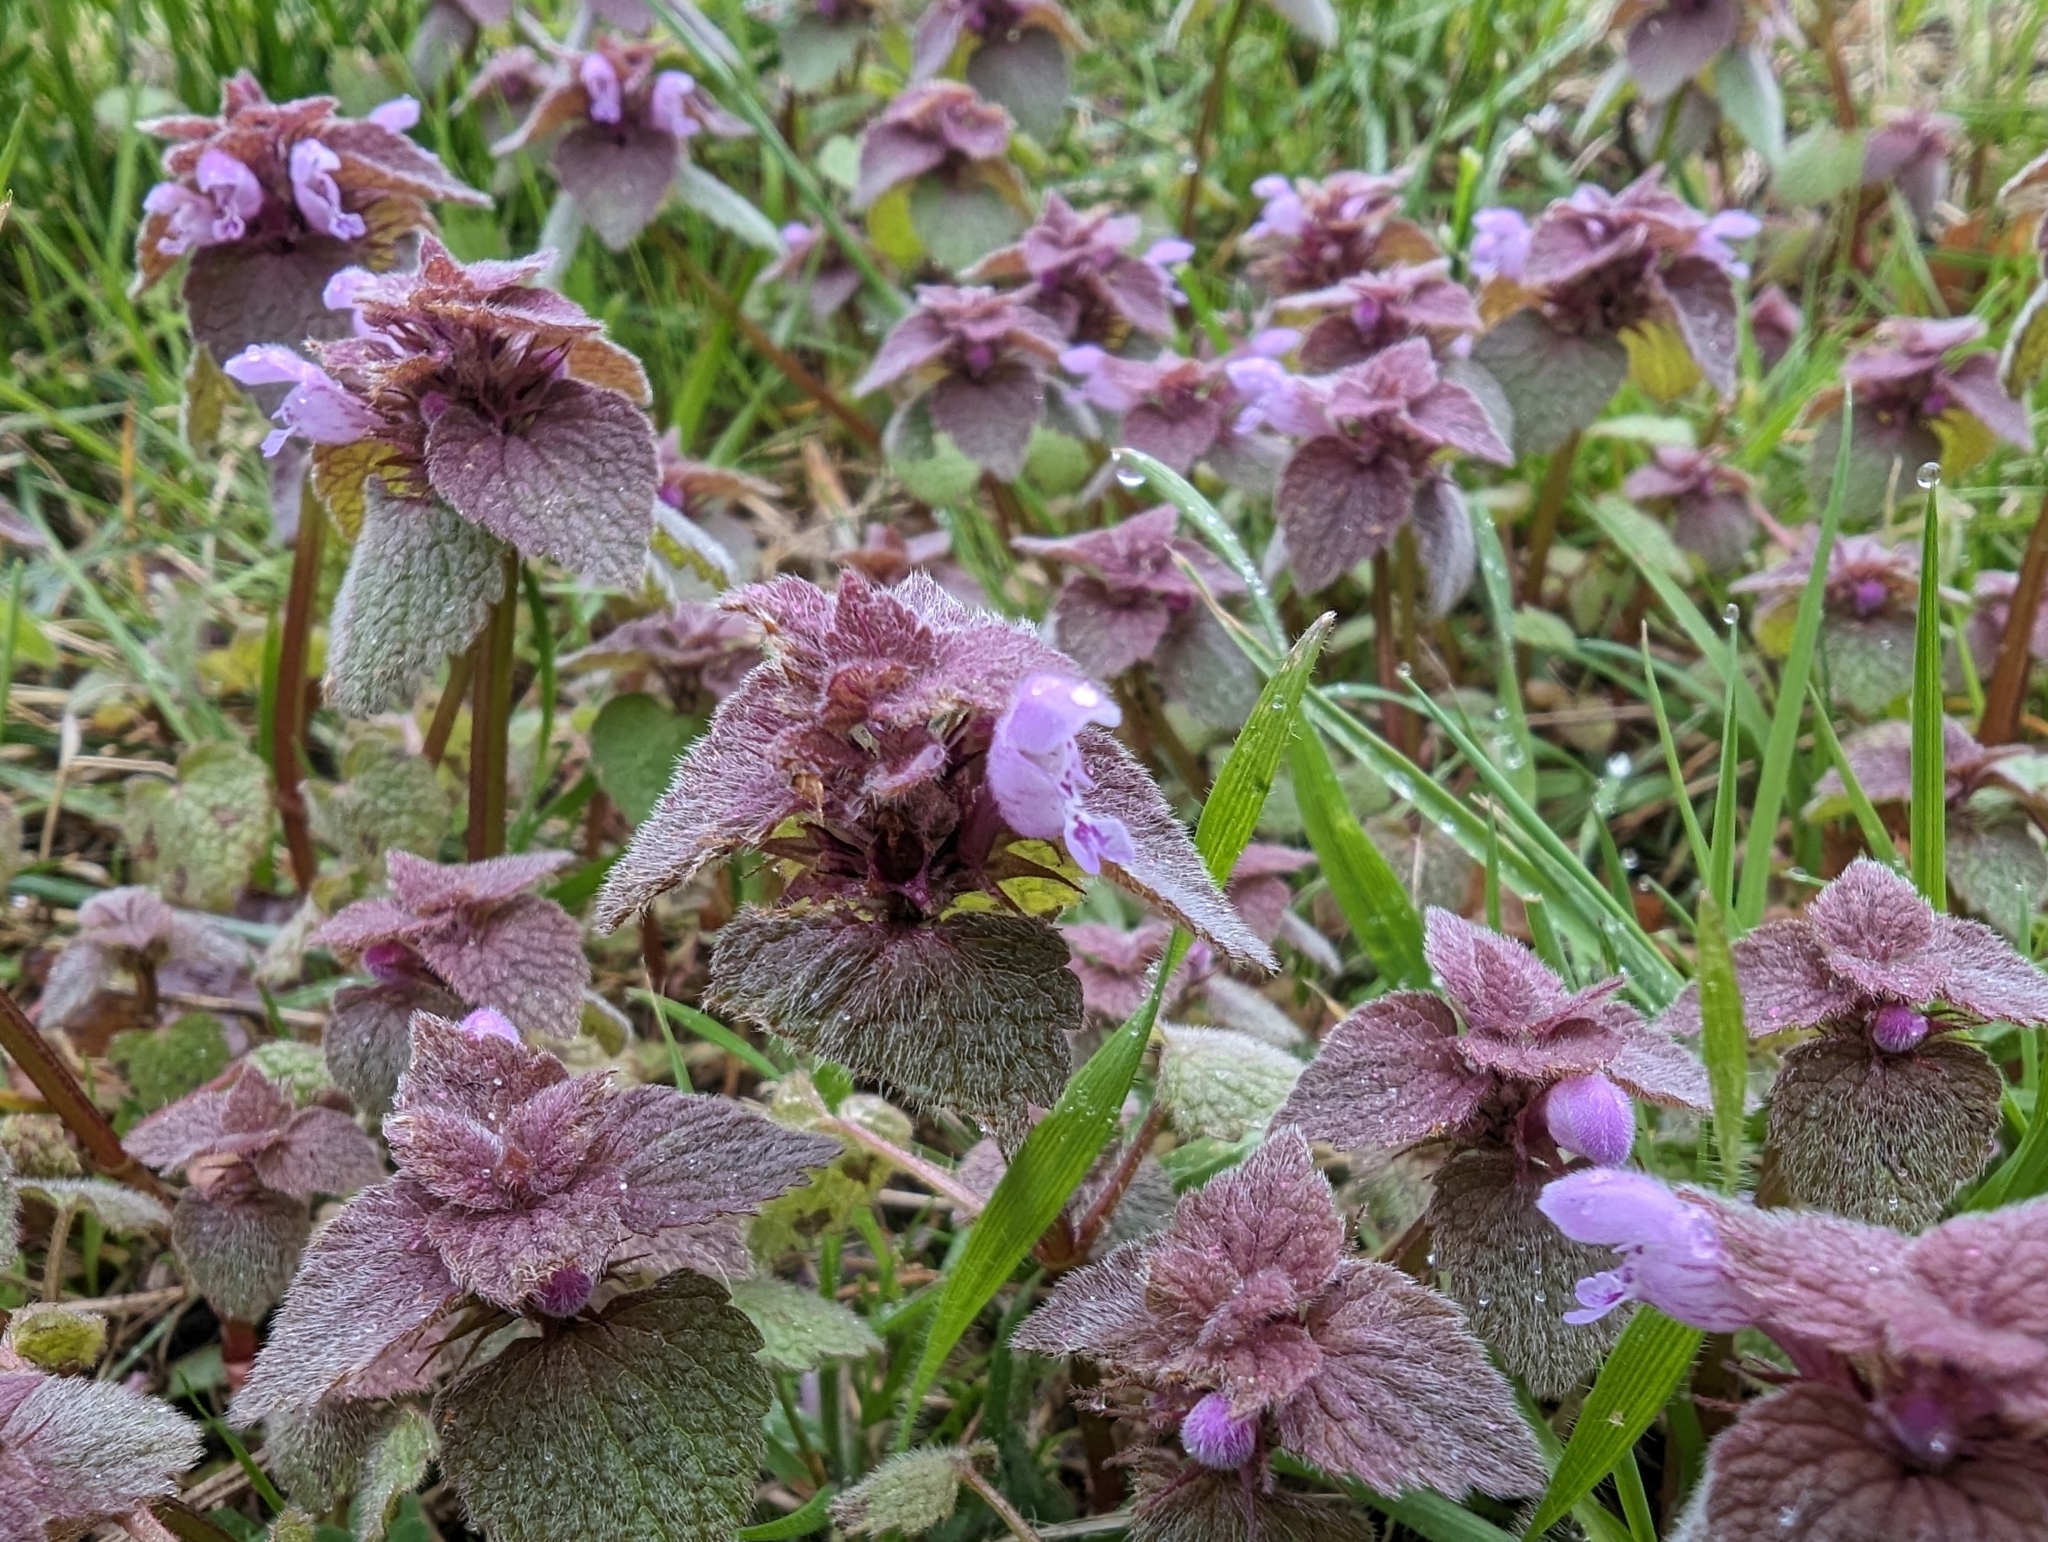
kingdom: Plantae
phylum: Tracheophyta
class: Magnoliopsida
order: Lamiales
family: Lamiaceae
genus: Lamium
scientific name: Lamium purpureum
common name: Red dead-nettle
